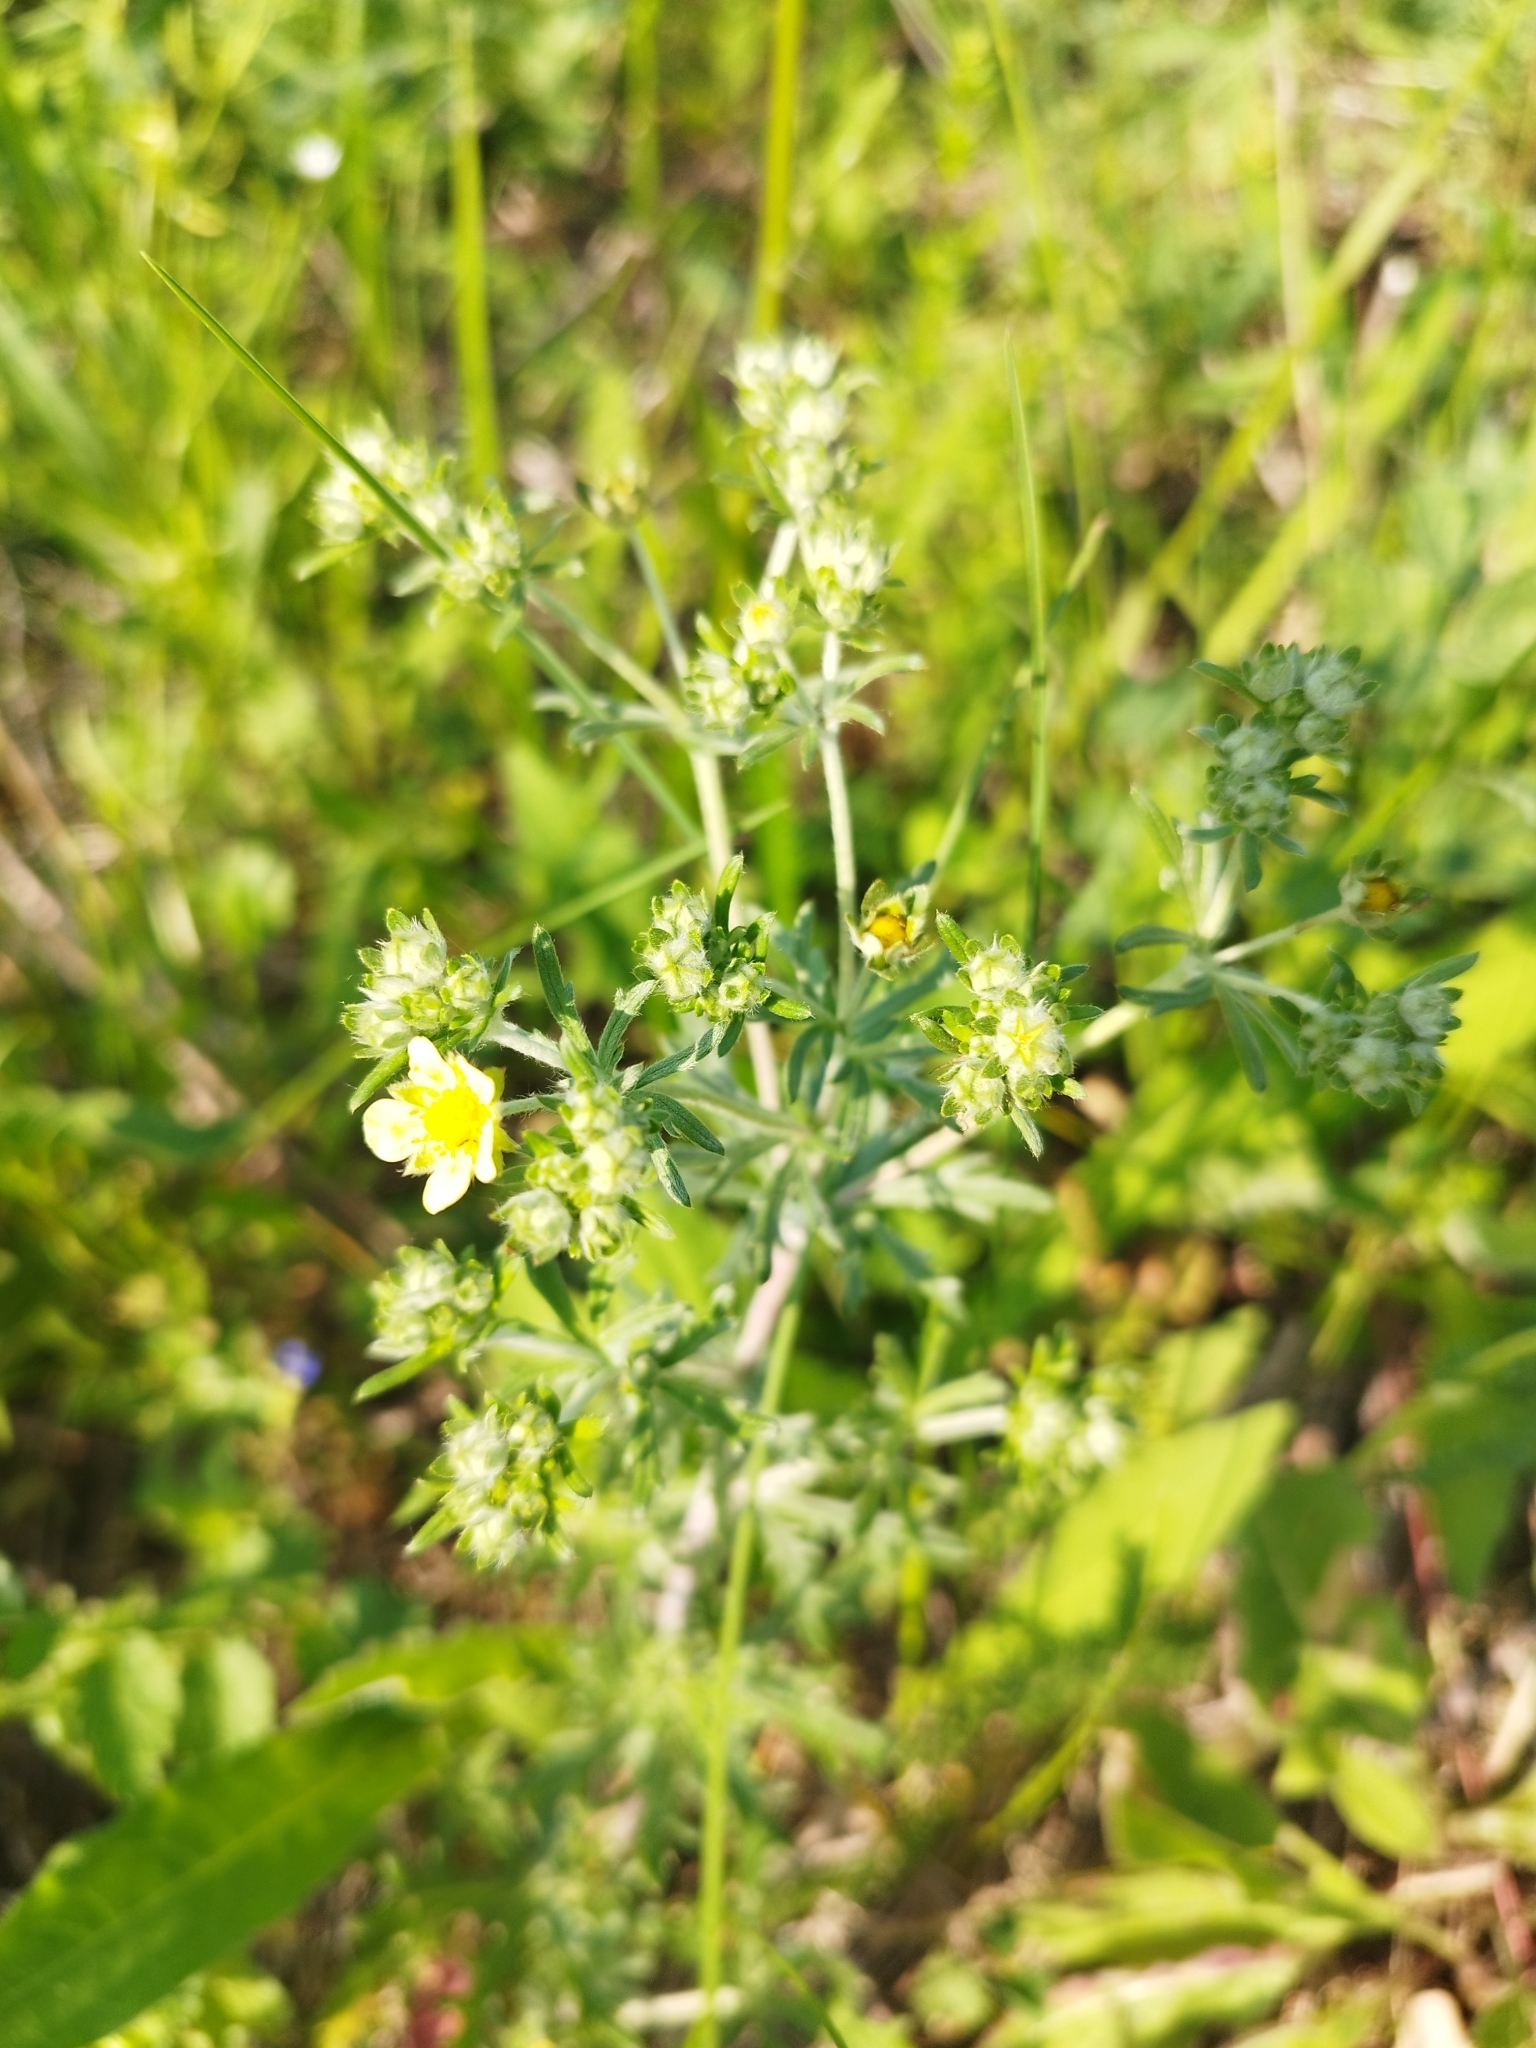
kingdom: Plantae
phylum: Tracheophyta
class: Magnoliopsida
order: Rosales
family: Rosaceae
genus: Potentilla
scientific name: Potentilla argentea
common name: Hoary cinquefoil
